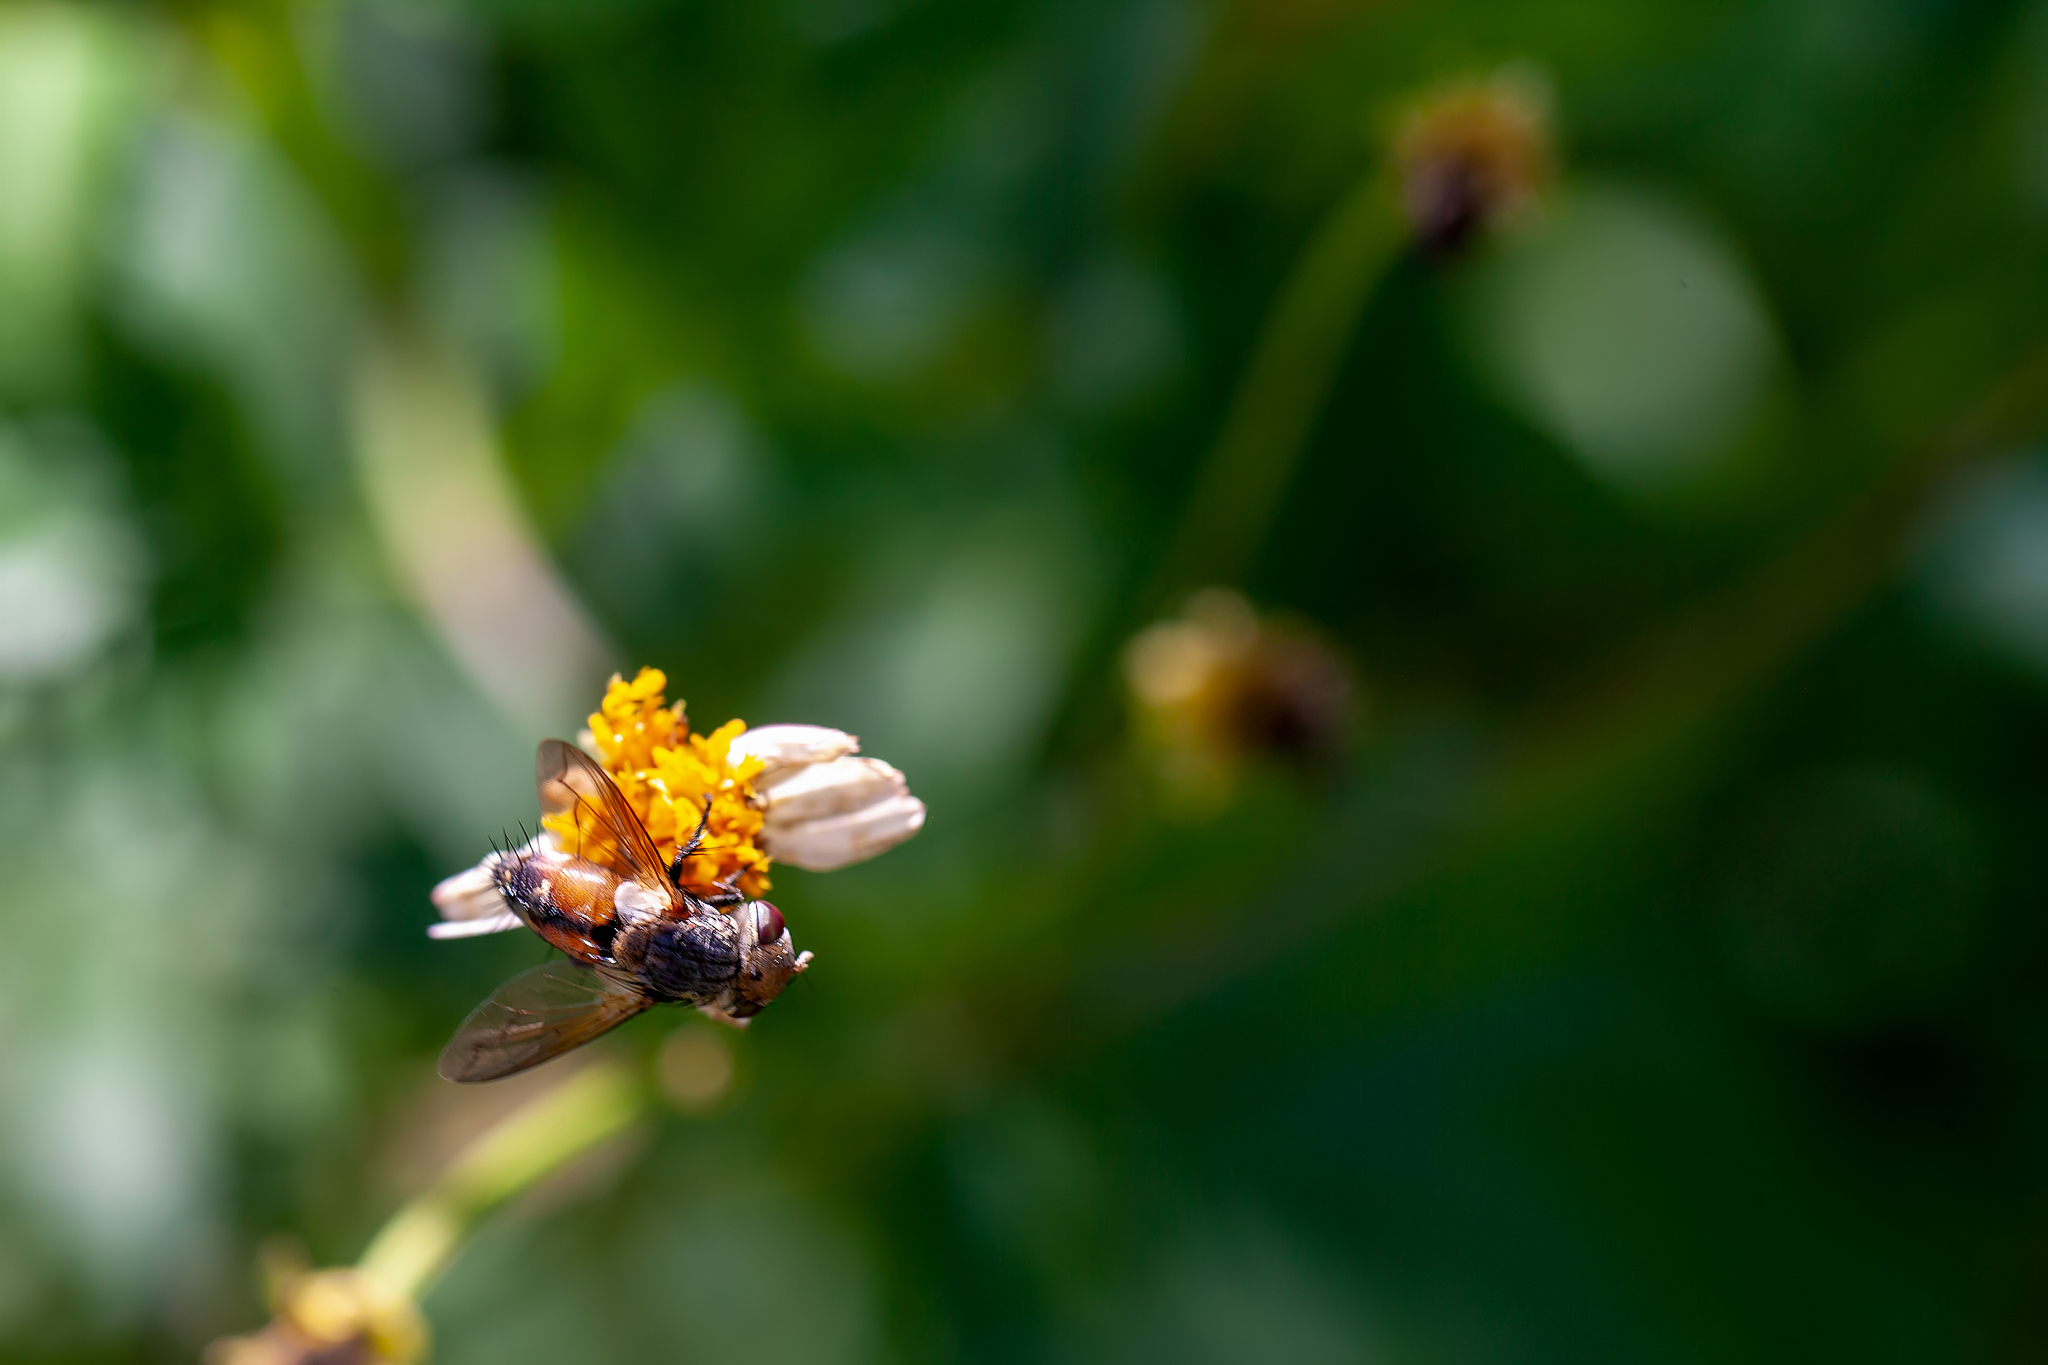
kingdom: Animalia
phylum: Arthropoda
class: Insecta
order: Diptera
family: Tachinidae
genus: Gonia
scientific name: Gonia crassicornis
